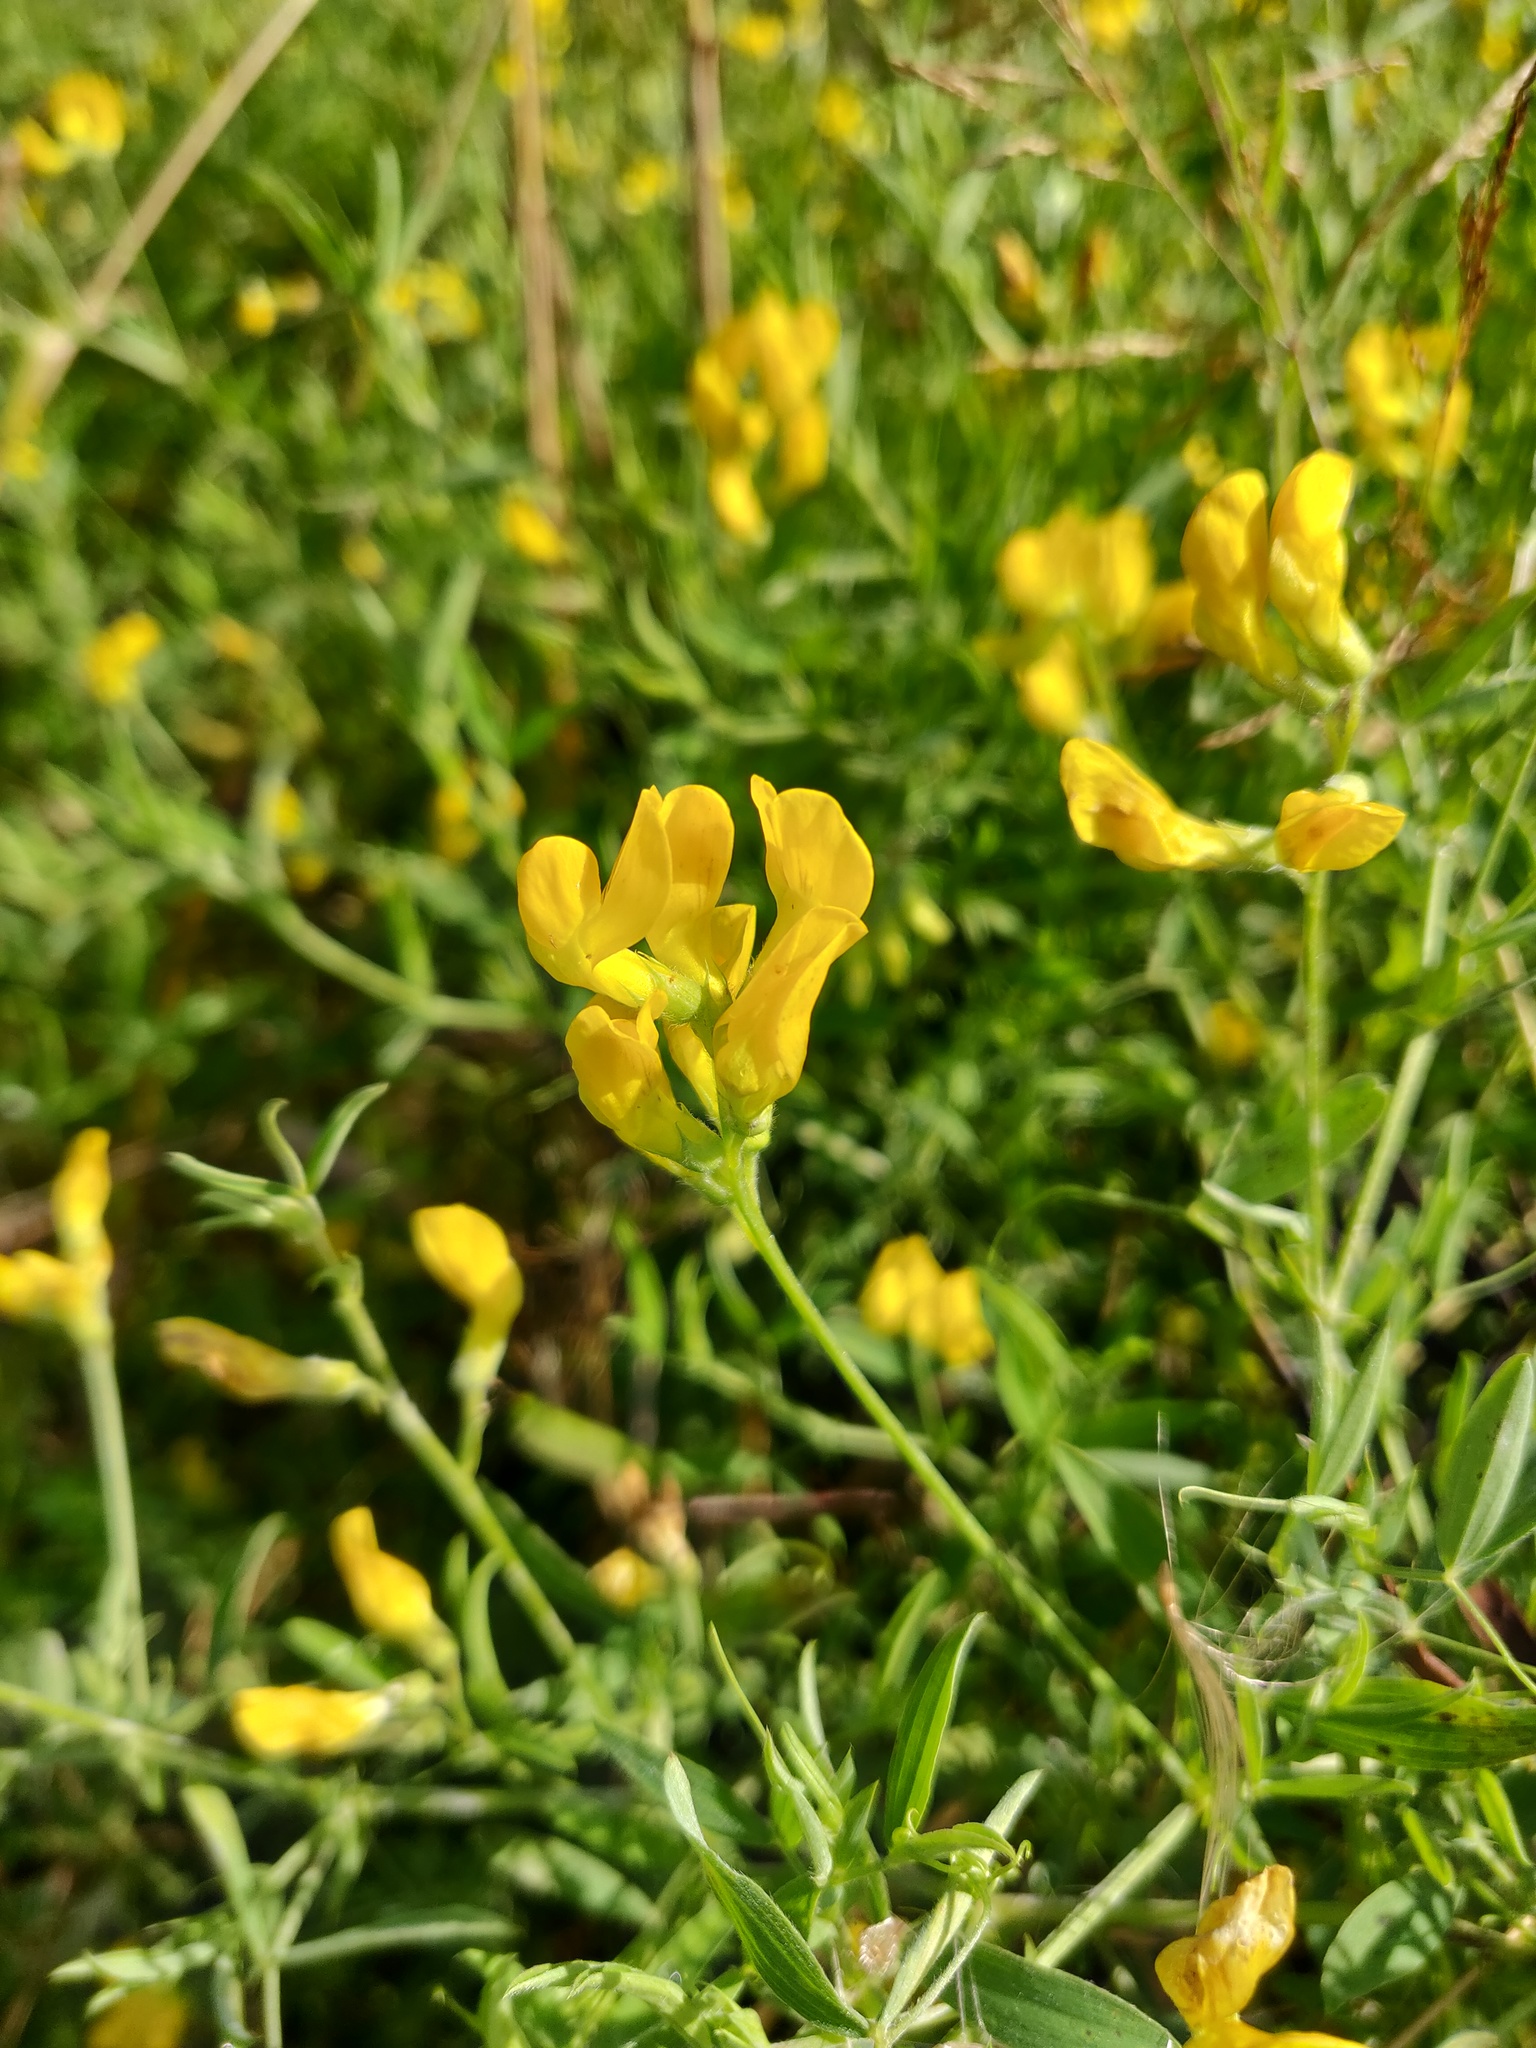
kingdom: Plantae
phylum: Tracheophyta
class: Magnoliopsida
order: Fabales
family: Fabaceae
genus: Lathyrus
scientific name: Lathyrus pratensis
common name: Meadow vetchling
